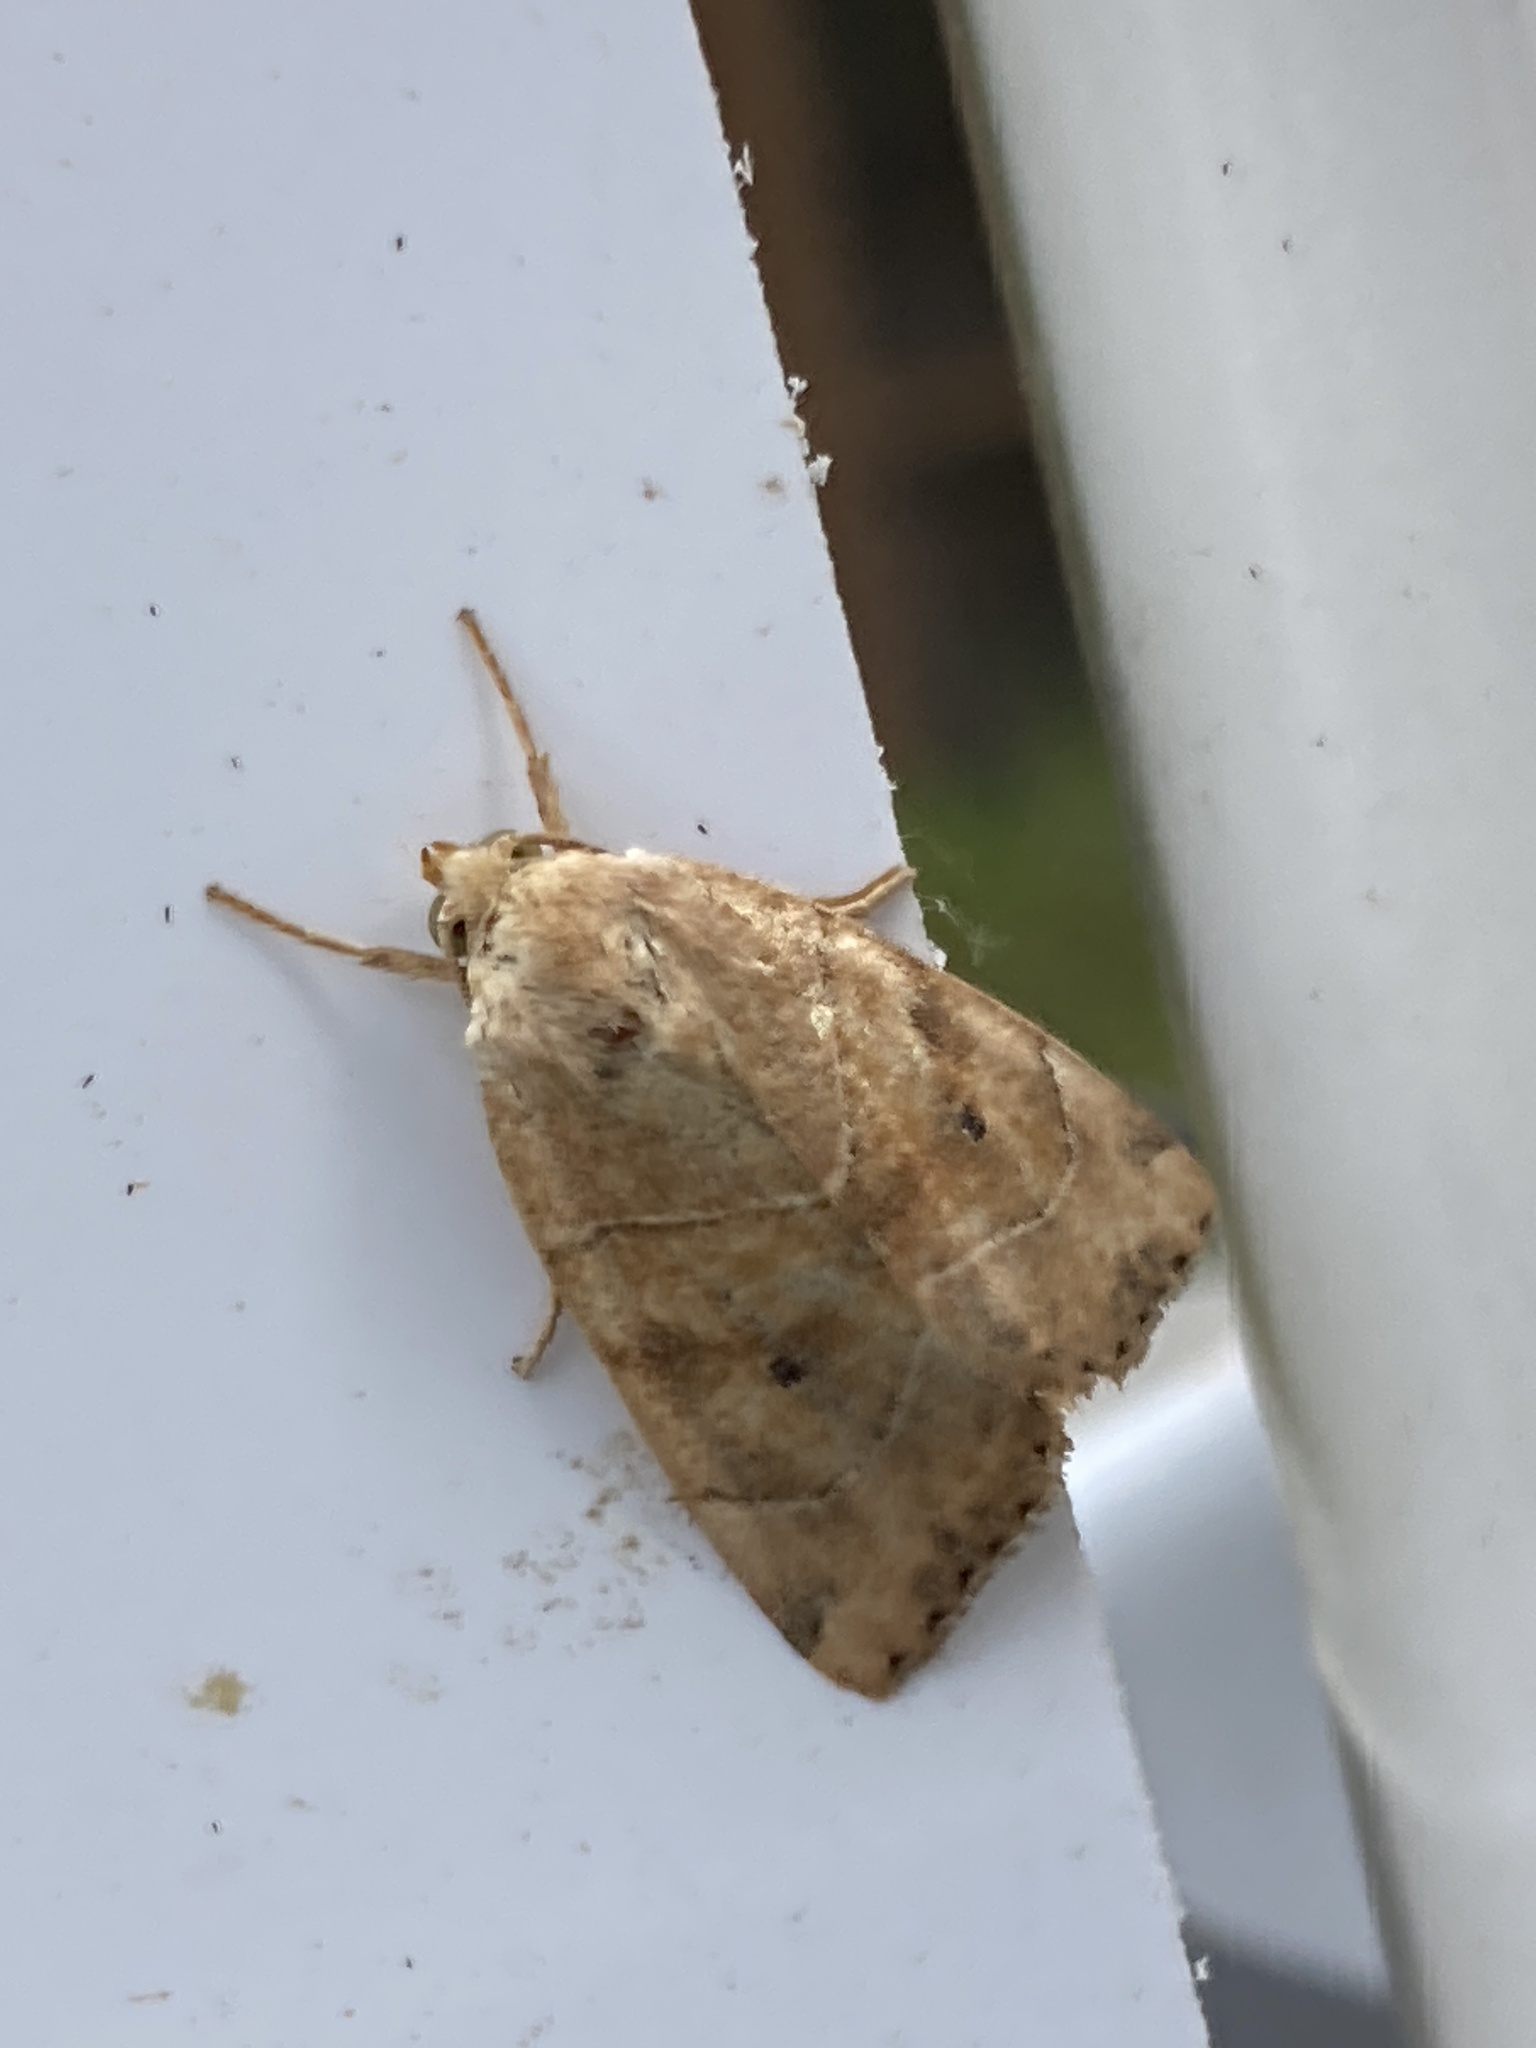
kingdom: Animalia
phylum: Arthropoda
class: Insecta
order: Lepidoptera
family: Noctuidae
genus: Cosmia
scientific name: Cosmia trapezina
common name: Dun-bar
